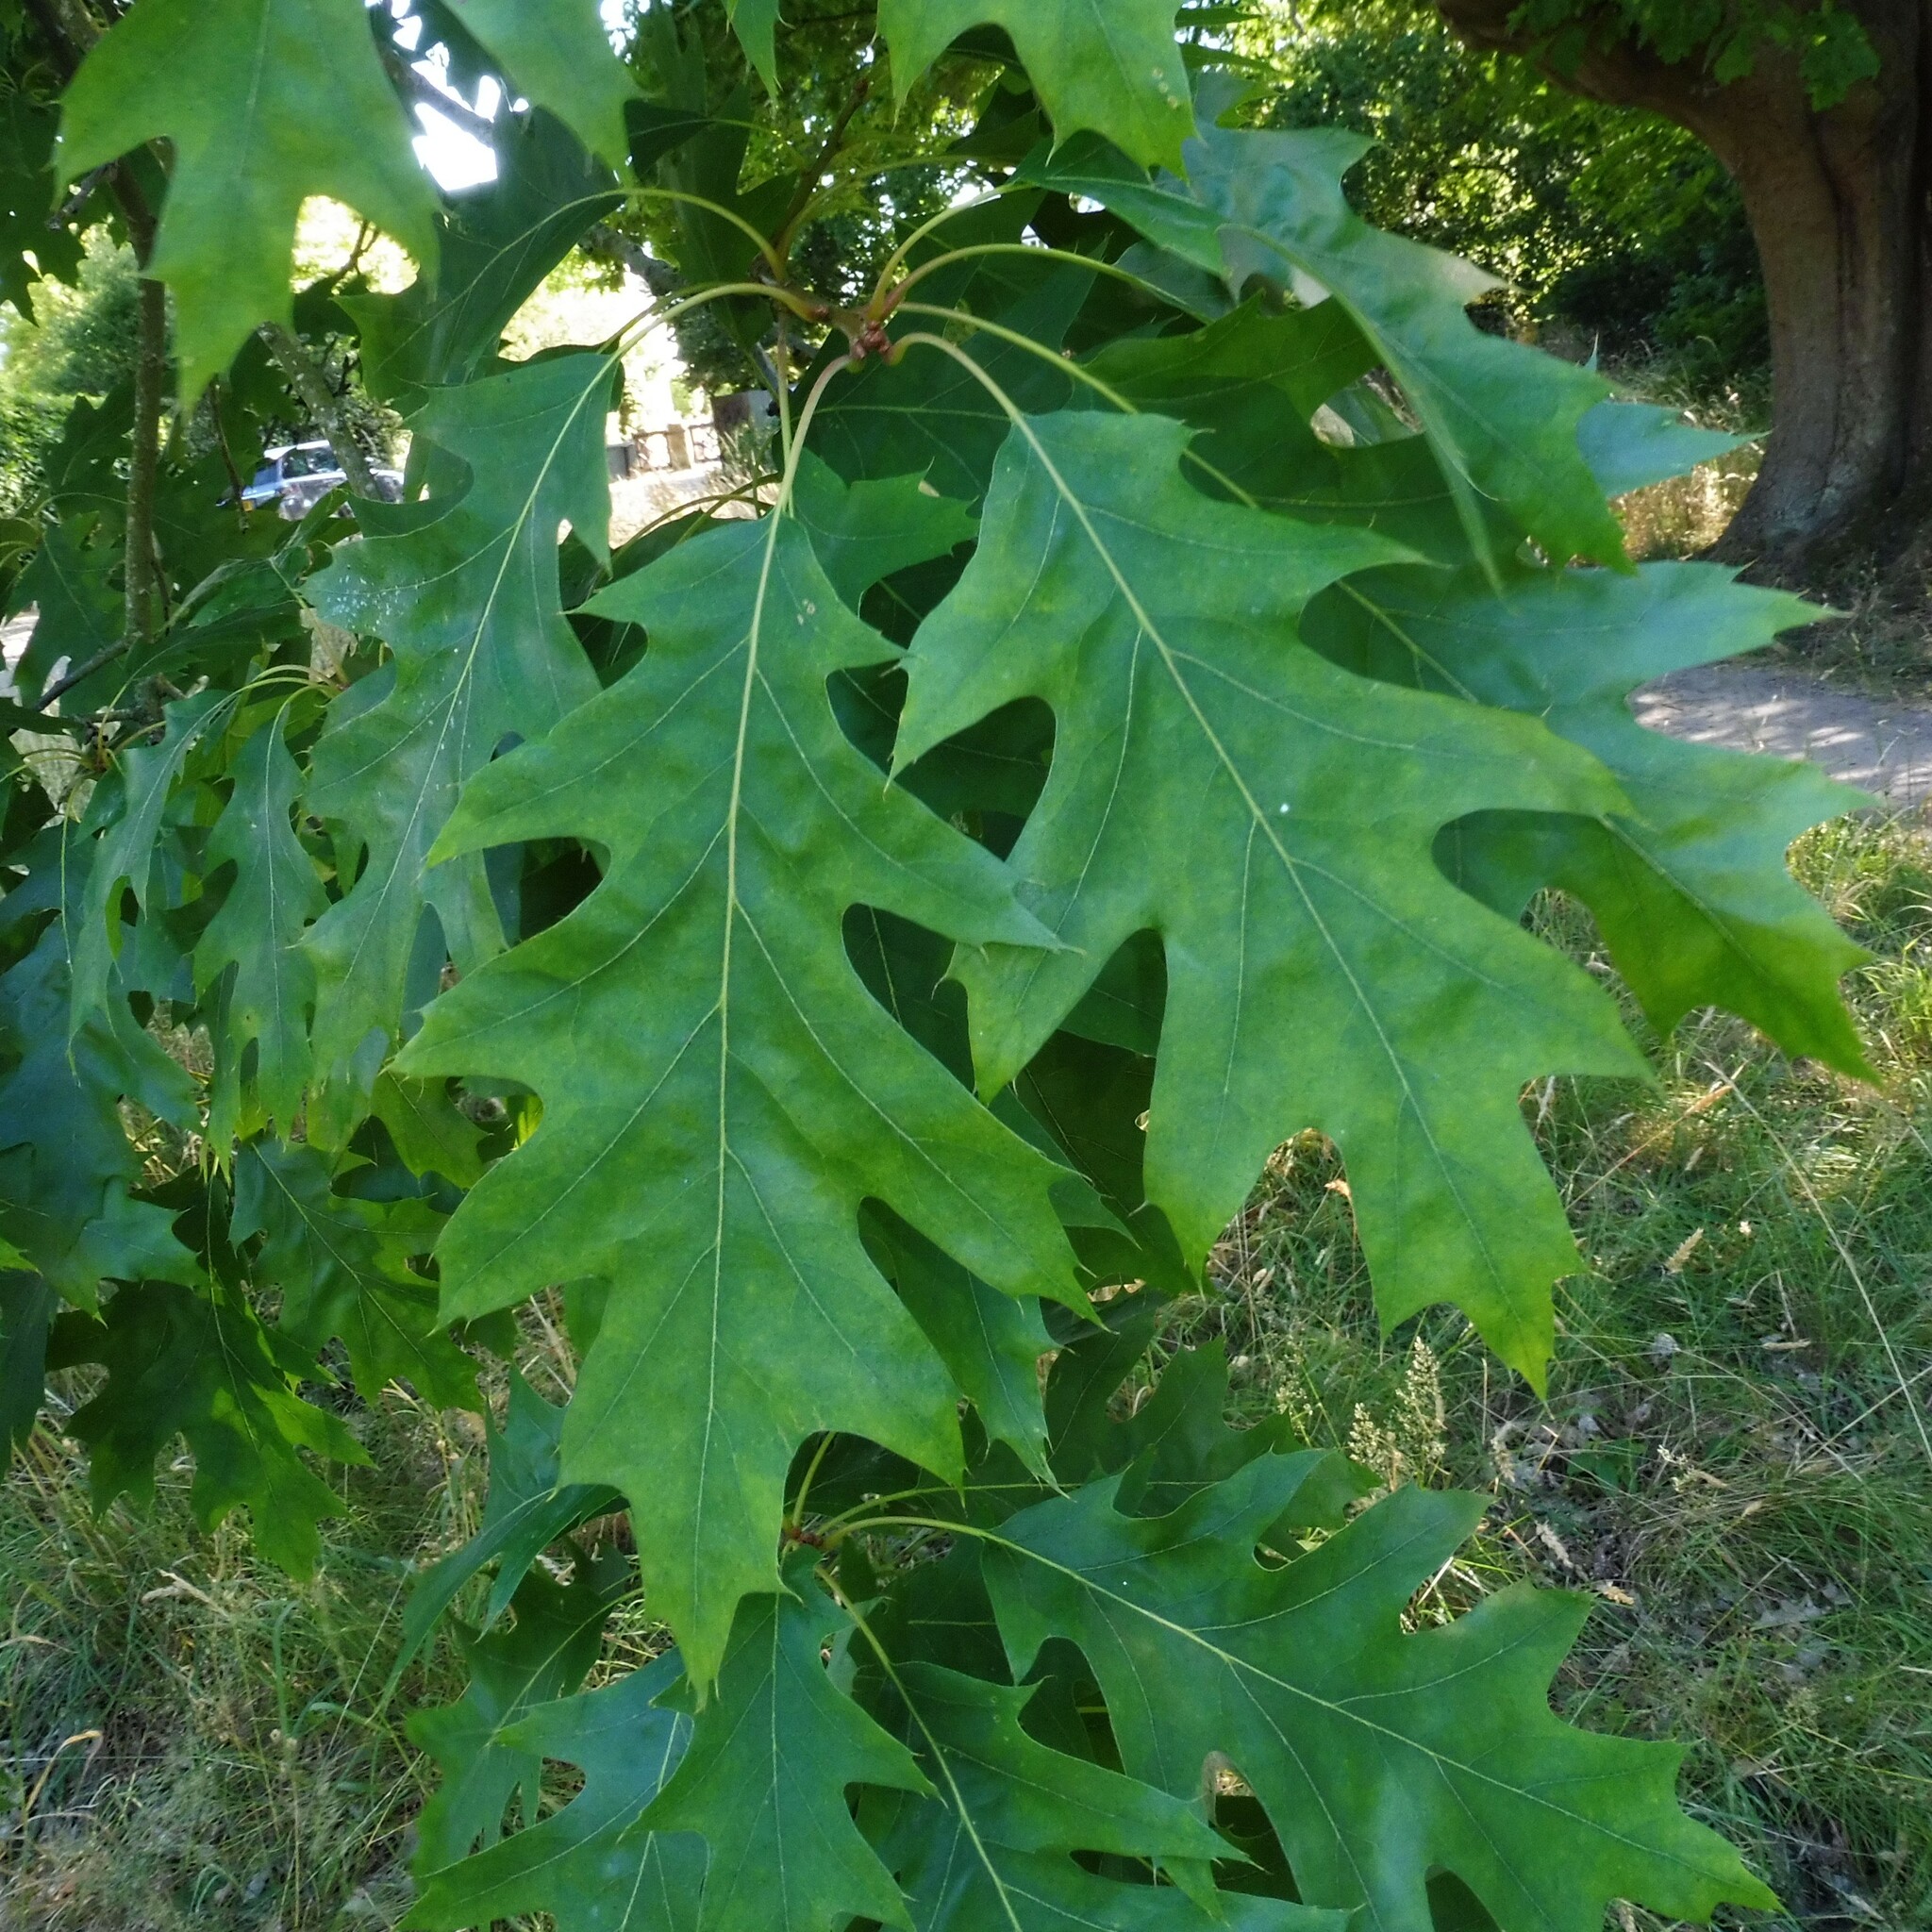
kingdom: Plantae
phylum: Tracheophyta
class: Magnoliopsida
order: Fagales
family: Fagaceae
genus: Quercus
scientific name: Quercus rubra
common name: Red oak
